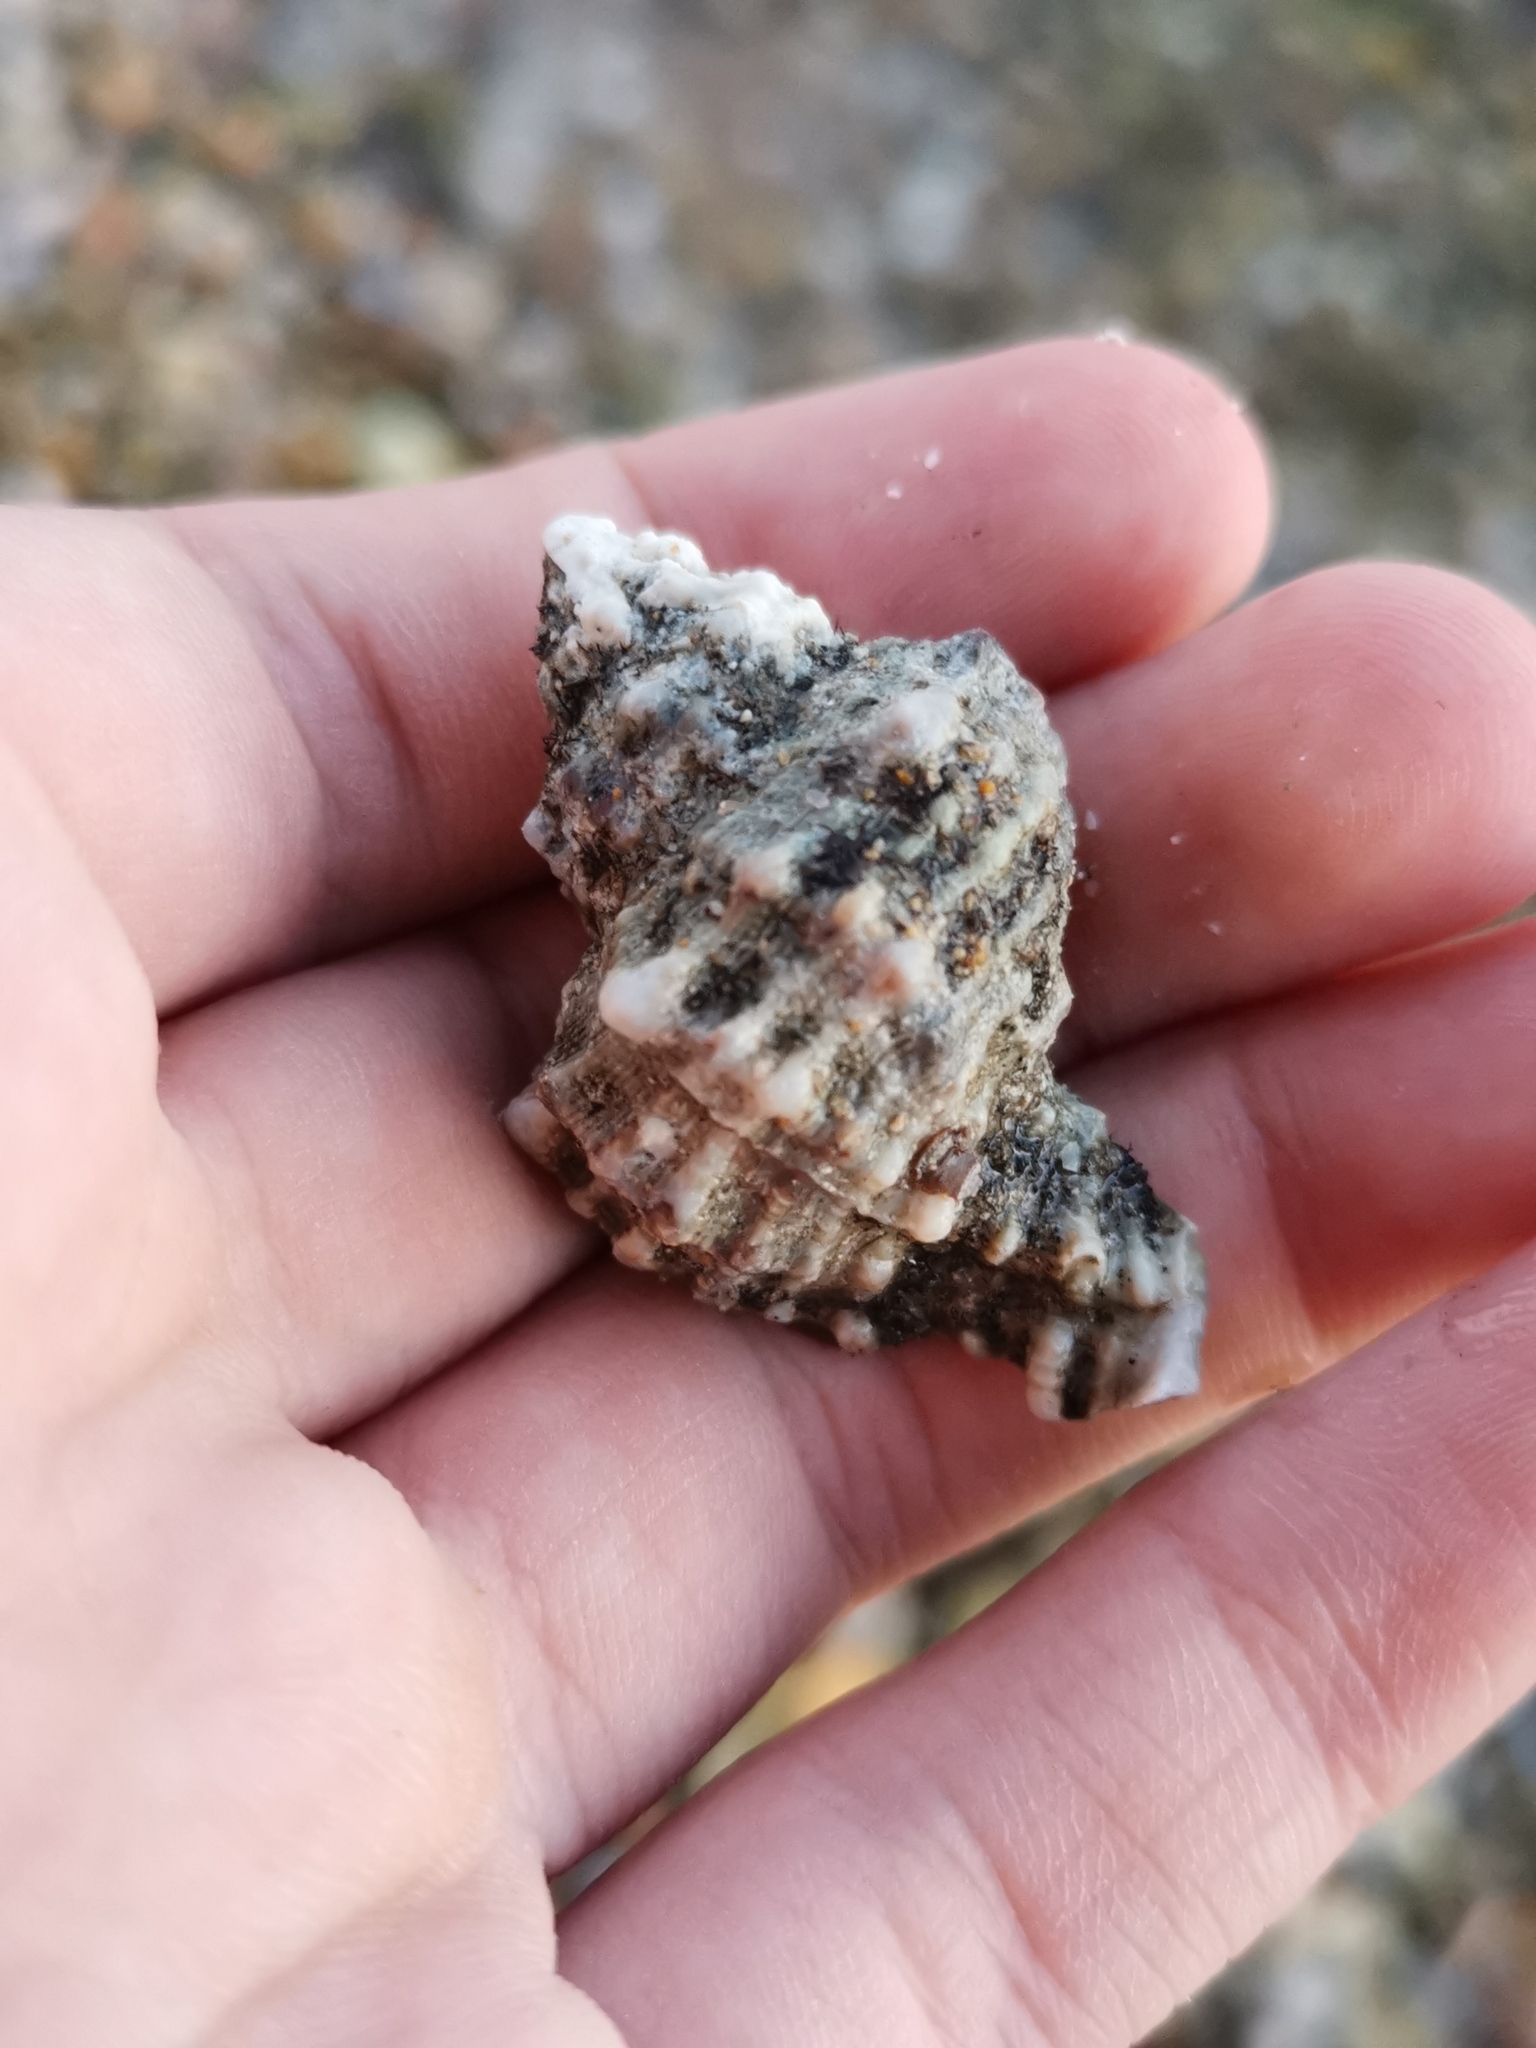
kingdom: Animalia
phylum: Mollusca
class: Gastropoda
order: Neogastropoda
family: Muricidae
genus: Hexaplex
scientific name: Hexaplex trunculus
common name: Banded dye-murex
